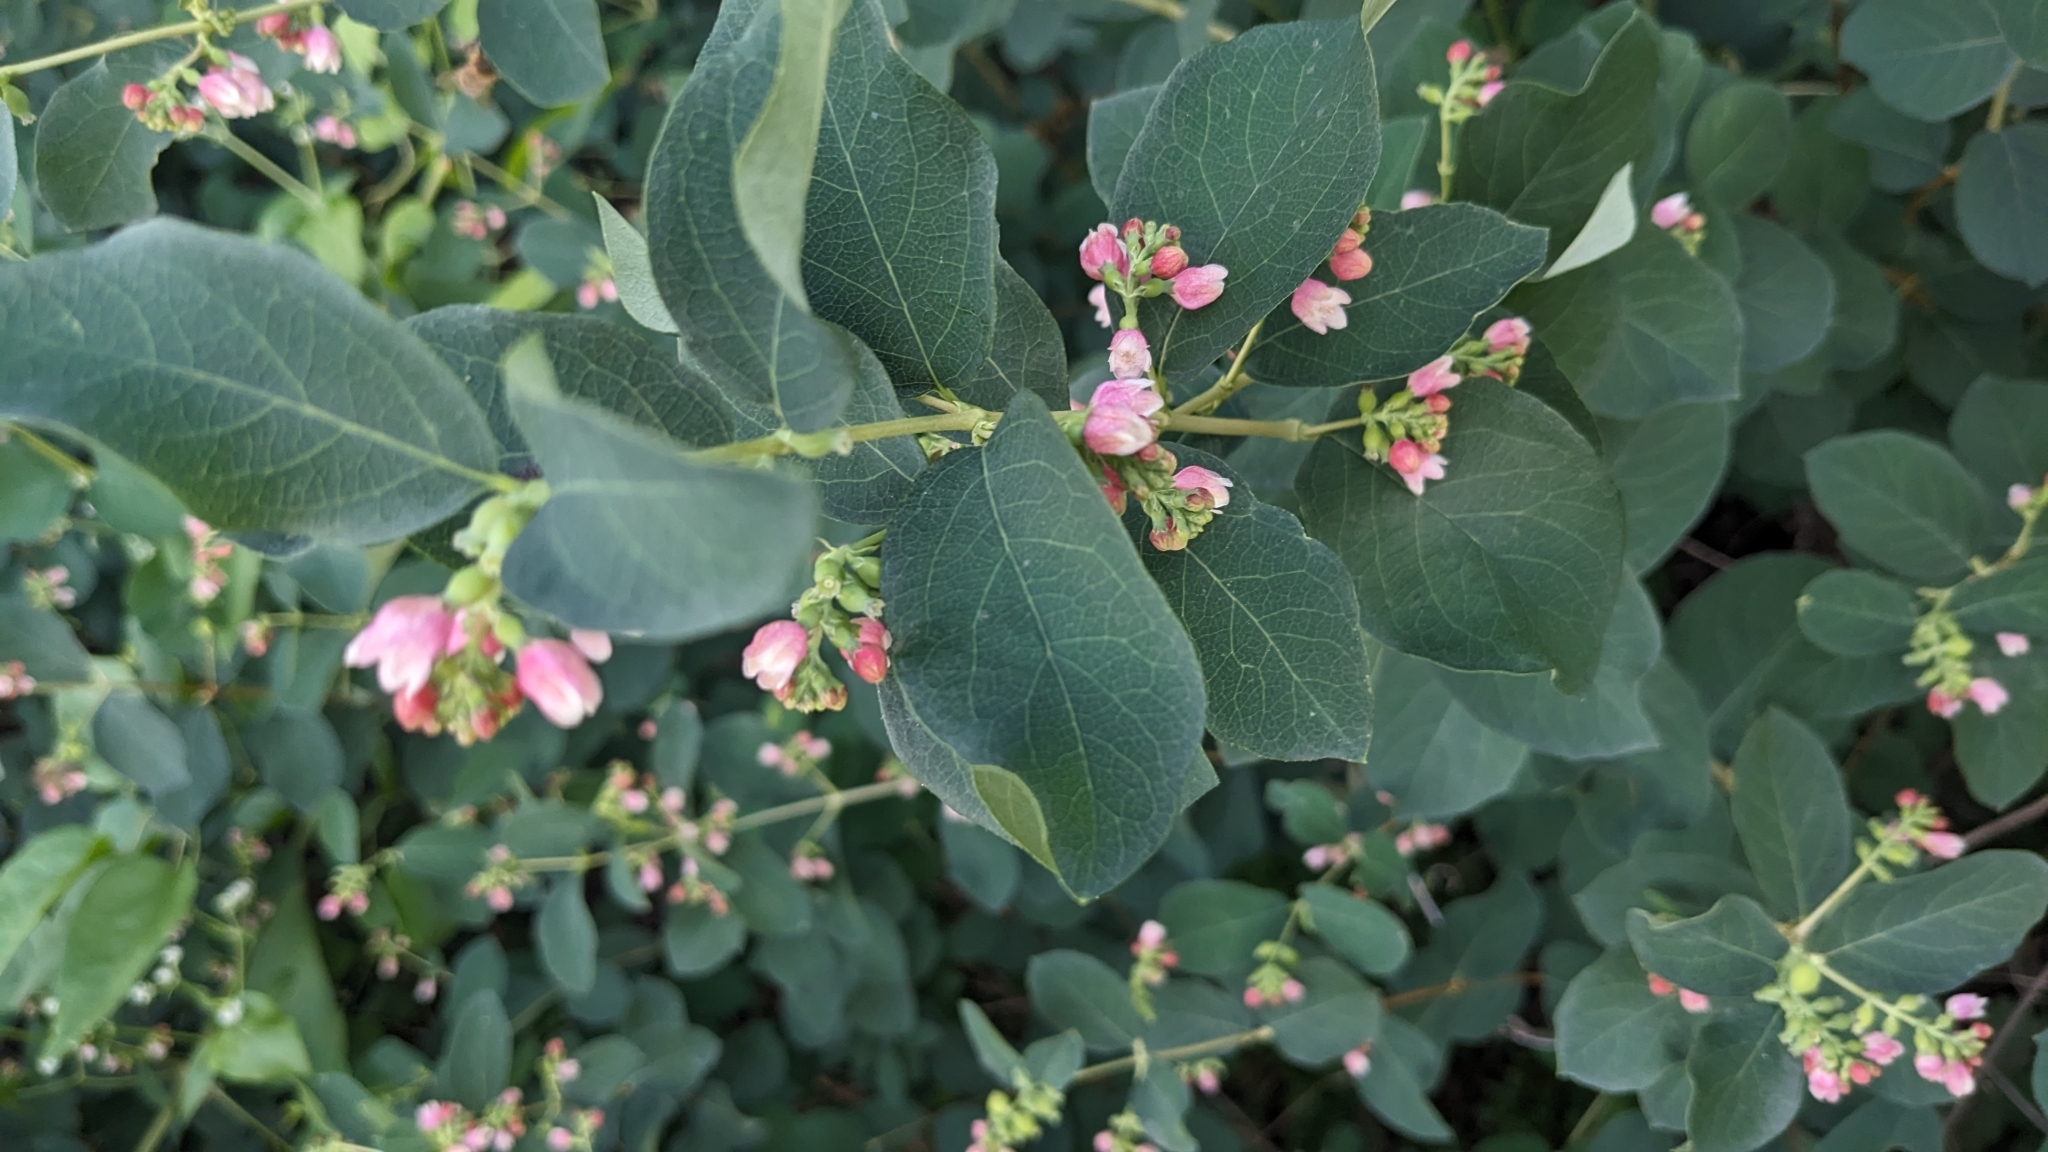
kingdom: Plantae
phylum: Tracheophyta
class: Magnoliopsida
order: Dipsacales
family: Caprifoliaceae
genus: Symphoricarpos
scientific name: Symphoricarpos albus
